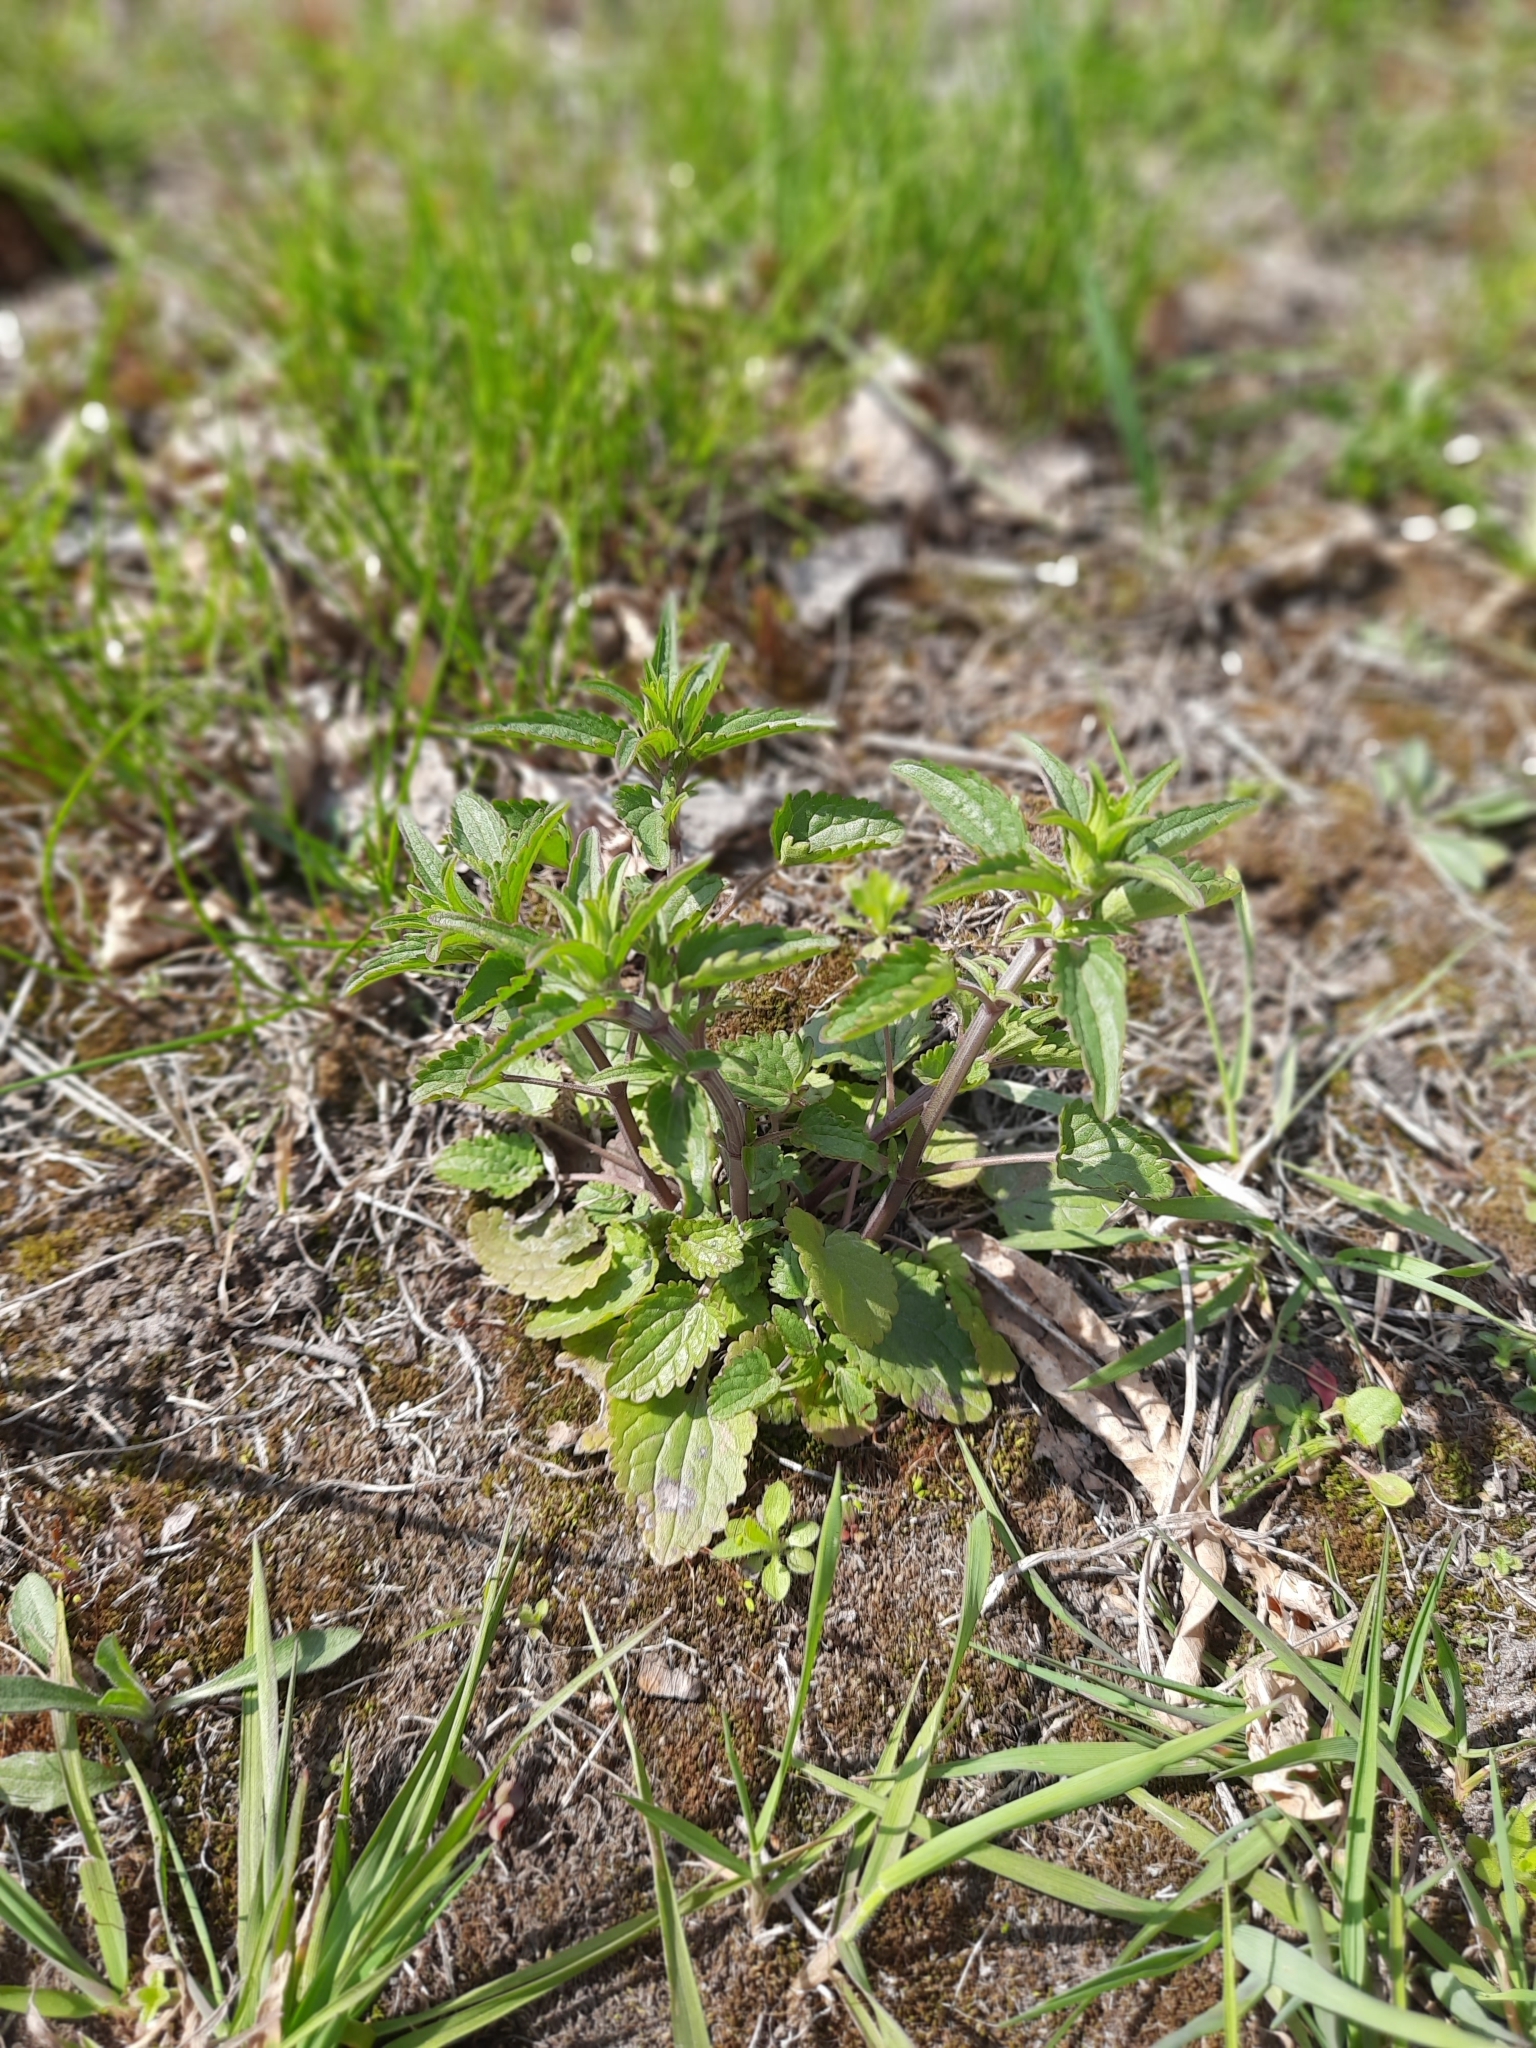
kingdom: Plantae
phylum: Tracheophyta
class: Magnoliopsida
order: Lamiales
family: Lamiaceae
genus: Dracocephalum
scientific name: Dracocephalum thymiflorum
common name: Thymeleaf dragonhead
